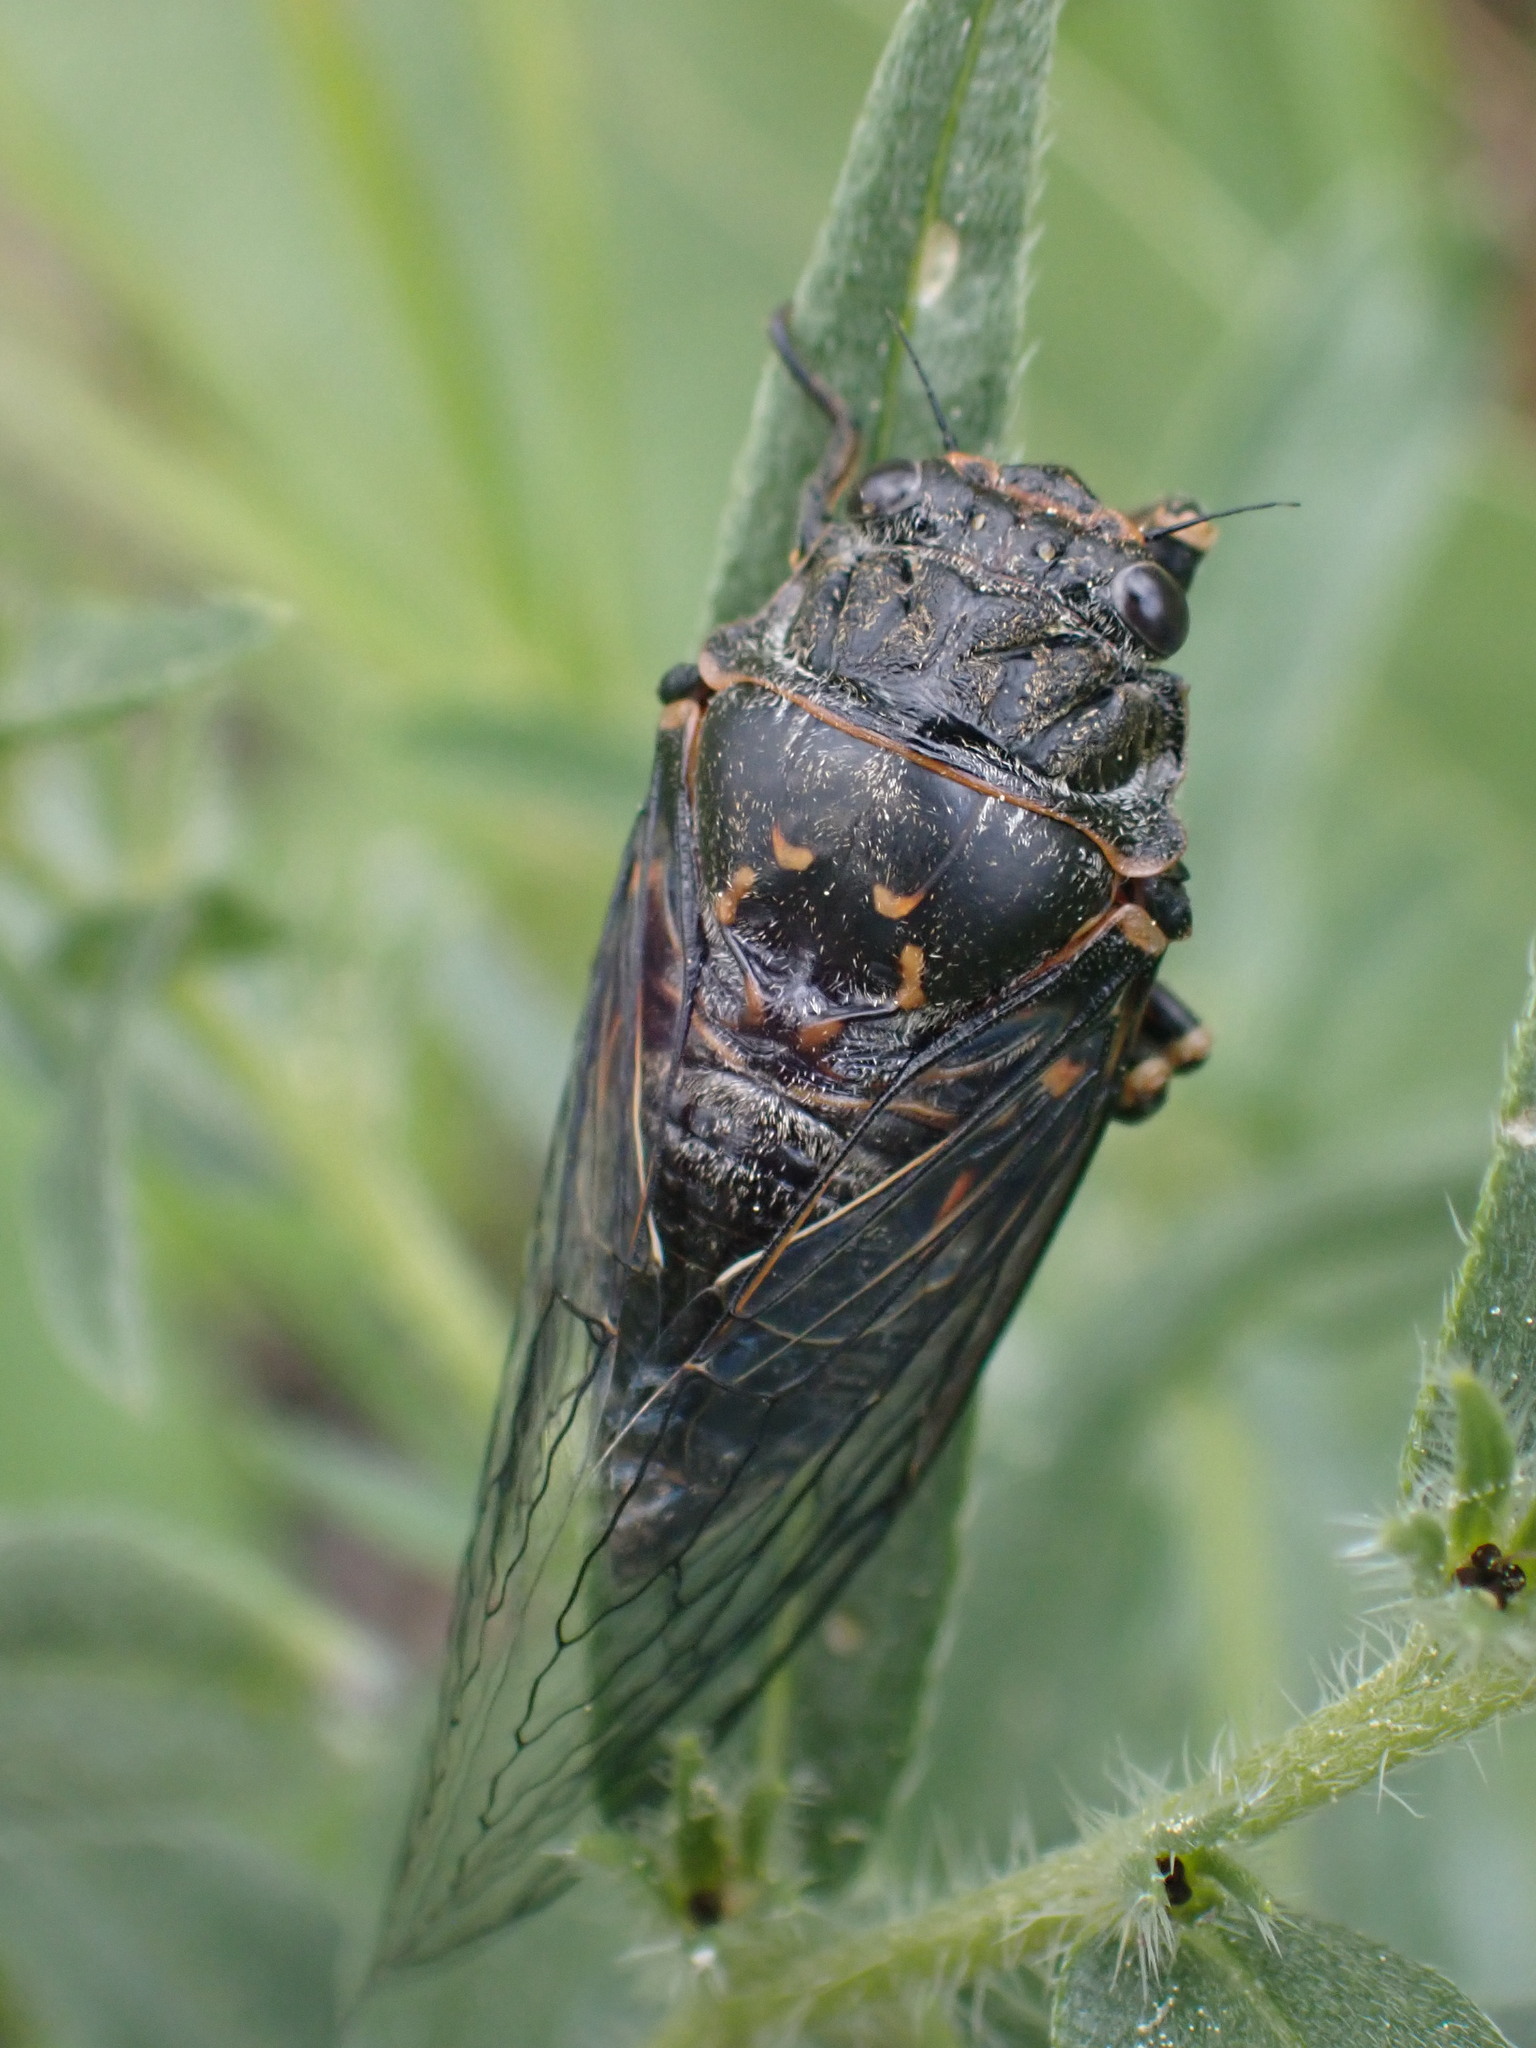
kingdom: Animalia
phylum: Arthropoda
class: Insecta
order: Hemiptera
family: Cicadidae
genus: Okanagana
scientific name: Okanagana occidentalis
